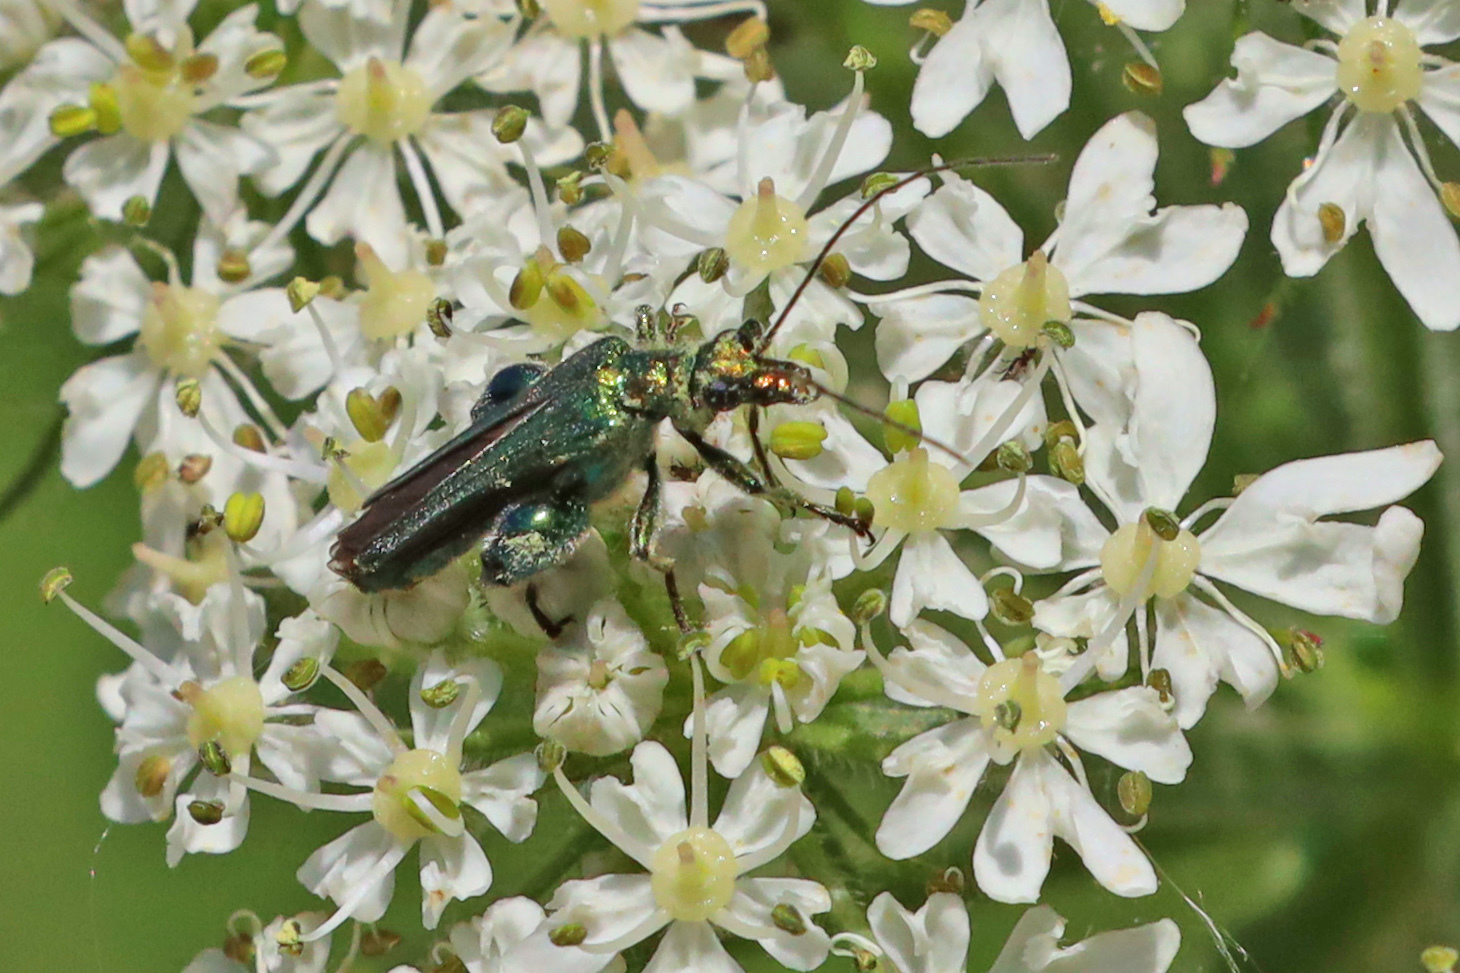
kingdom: Animalia
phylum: Arthropoda
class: Insecta
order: Coleoptera
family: Oedemeridae
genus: Oedemera
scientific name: Oedemera nobilis
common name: Swollen-thighed beetle
